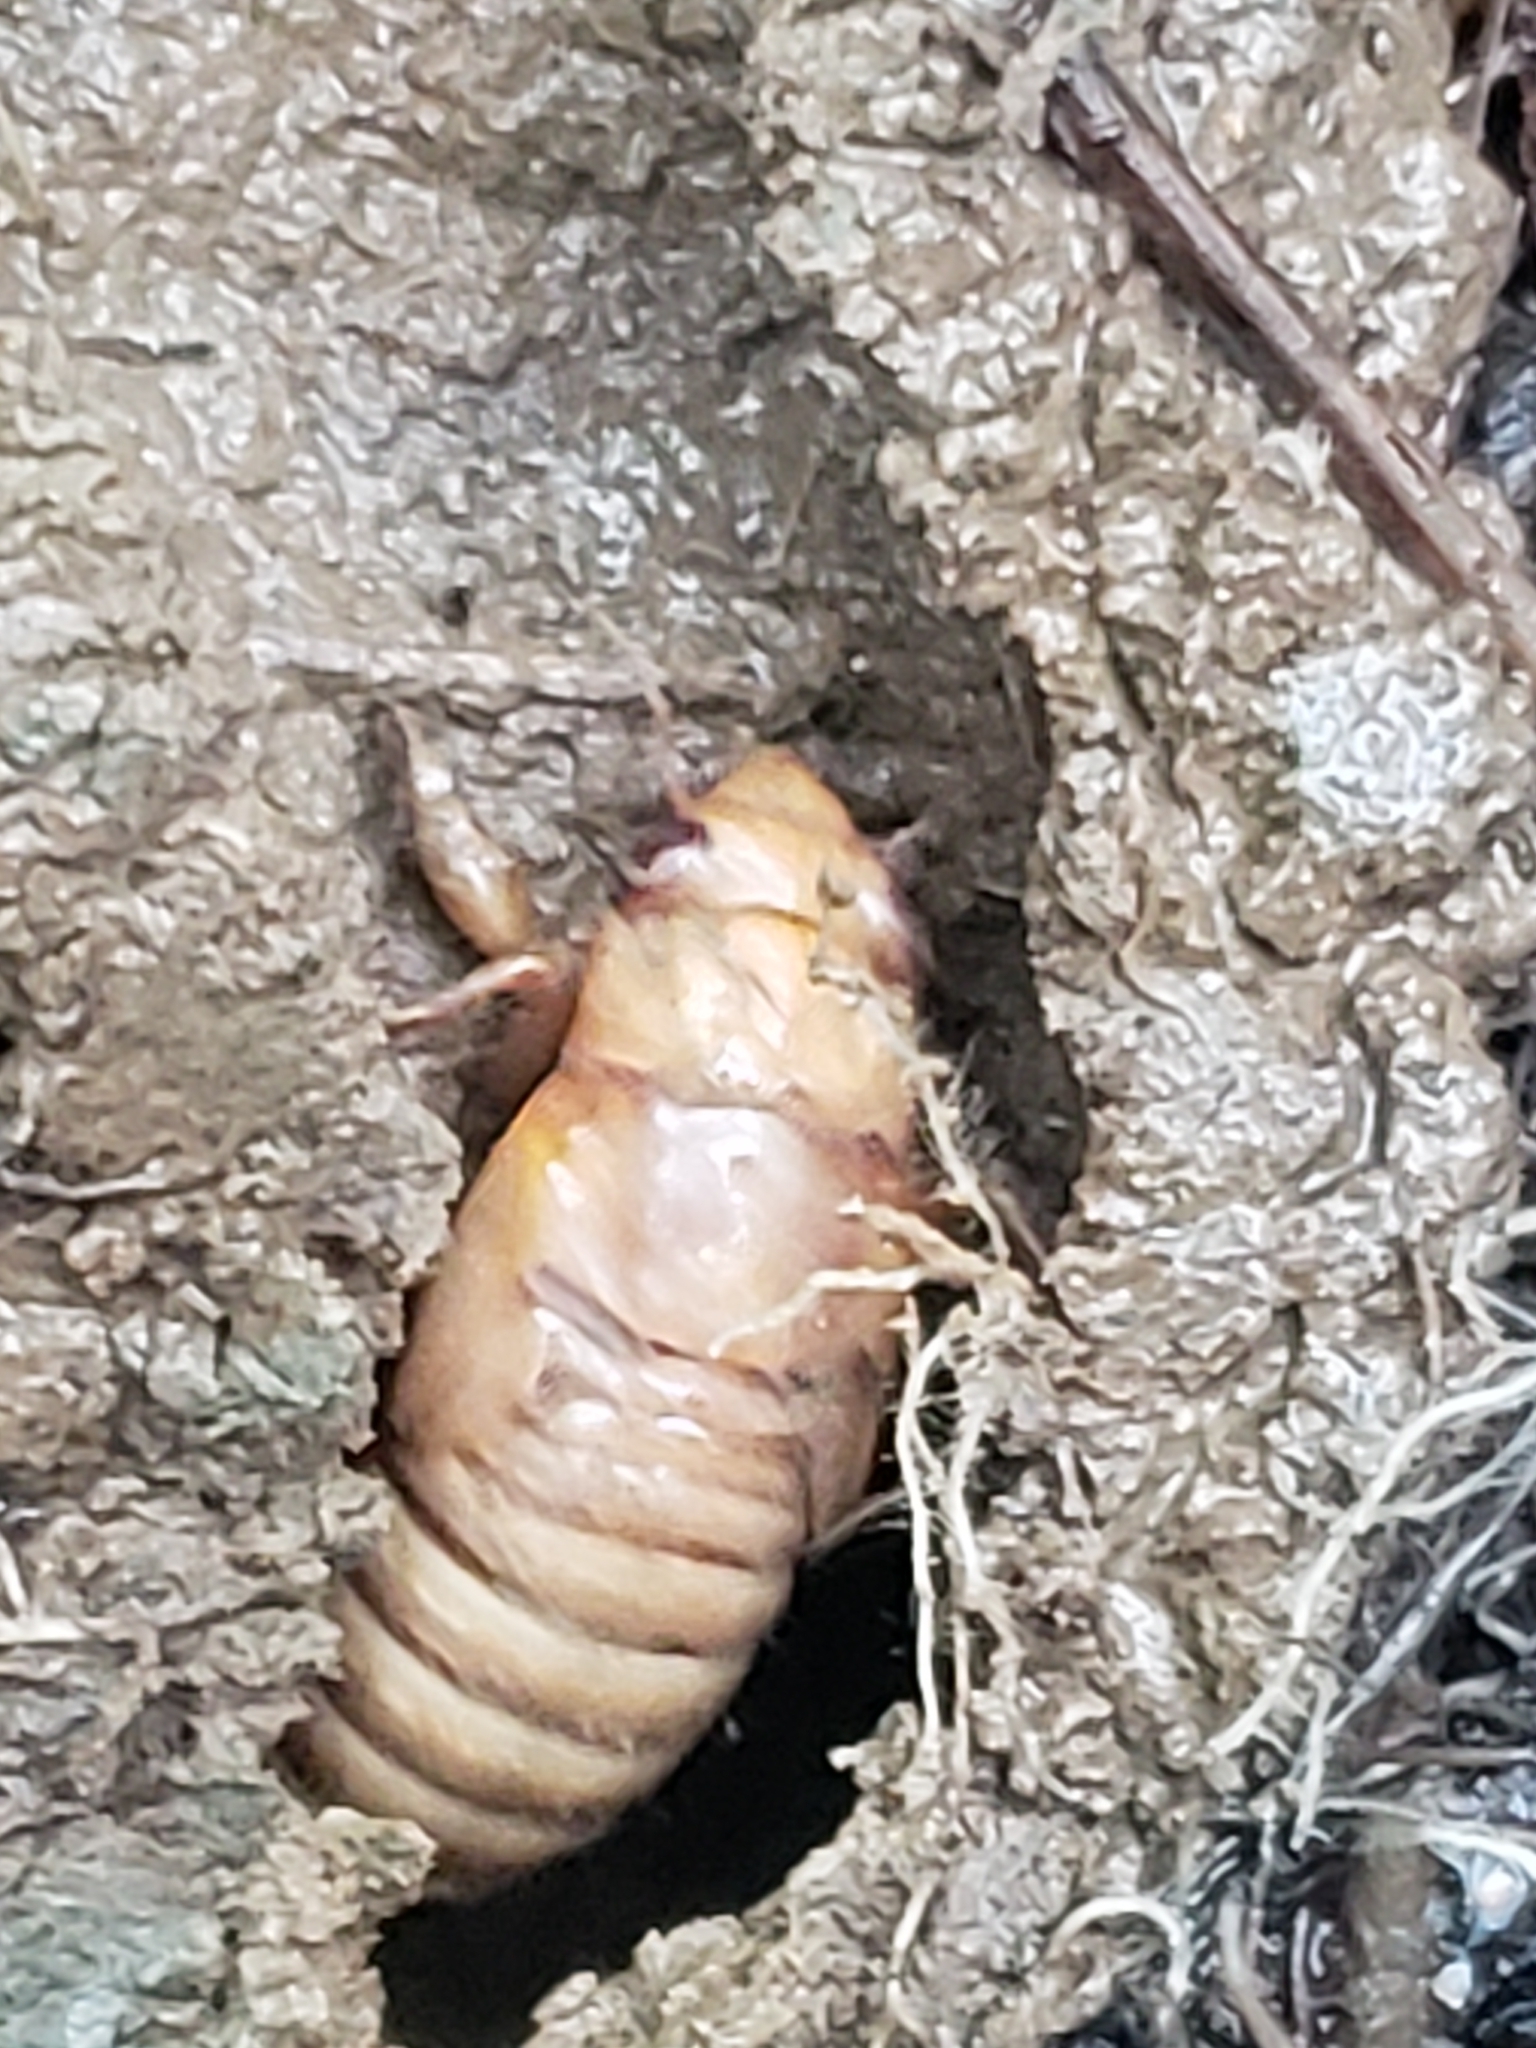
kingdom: Animalia
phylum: Arthropoda
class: Insecta
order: Hemiptera
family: Cicadidae
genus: Magicicada
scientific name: Magicicada
